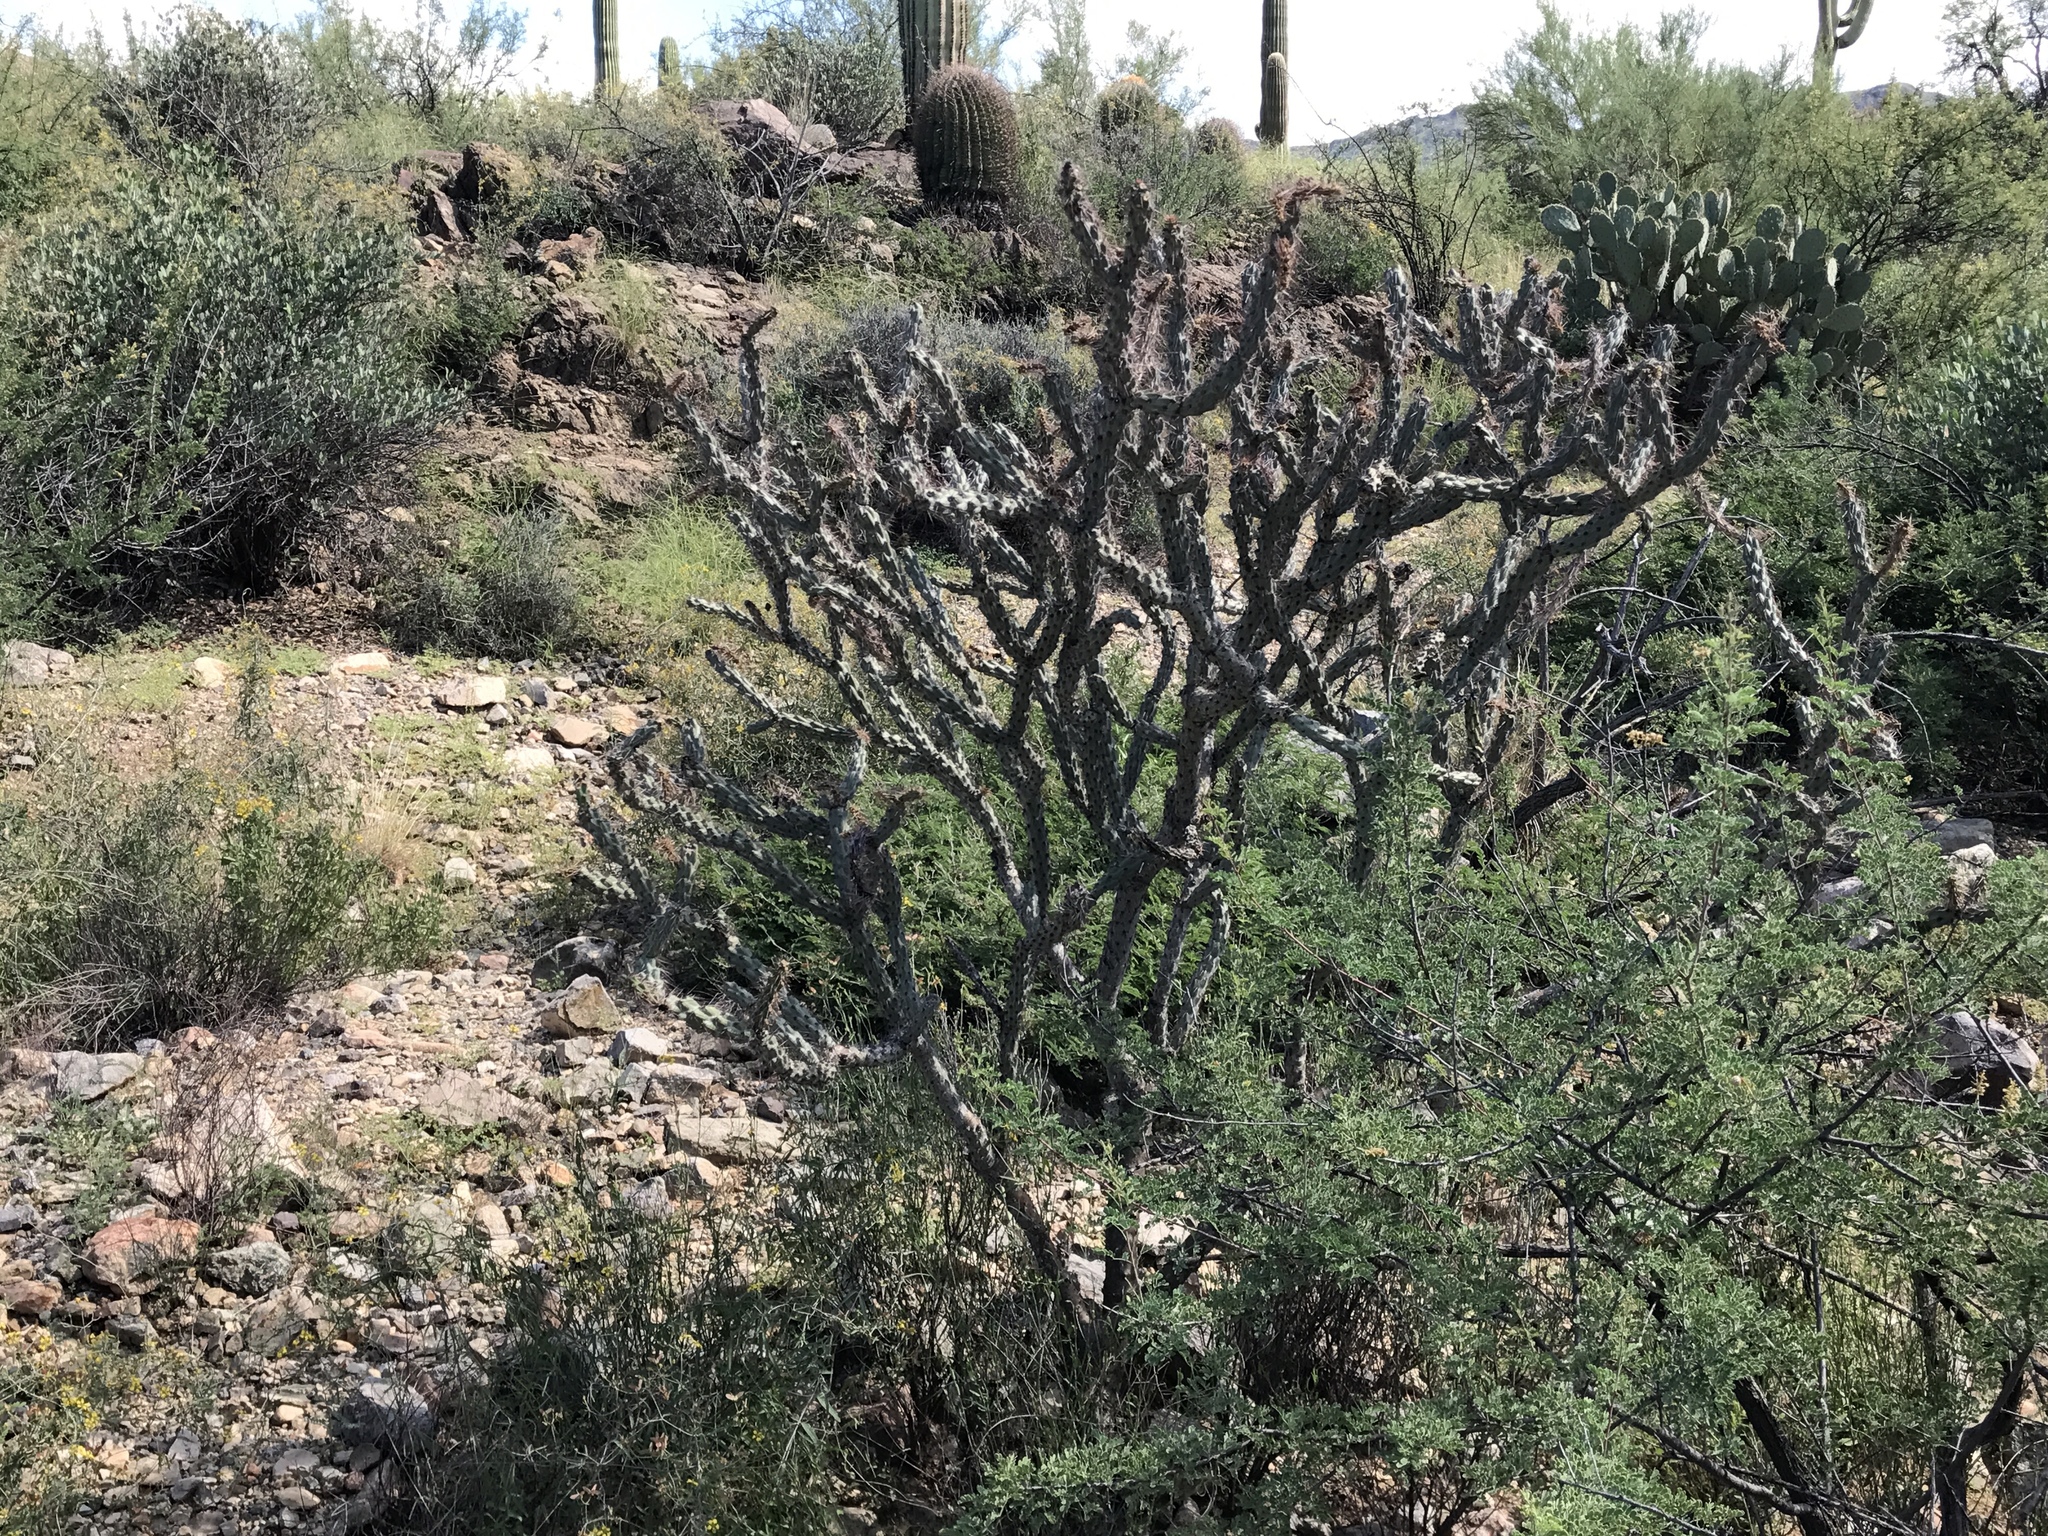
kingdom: Plantae
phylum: Tracheophyta
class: Magnoliopsida
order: Caryophyllales
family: Cactaceae
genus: Cylindropuntia
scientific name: Cylindropuntia acanthocarpa
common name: Buckhorn cholla
